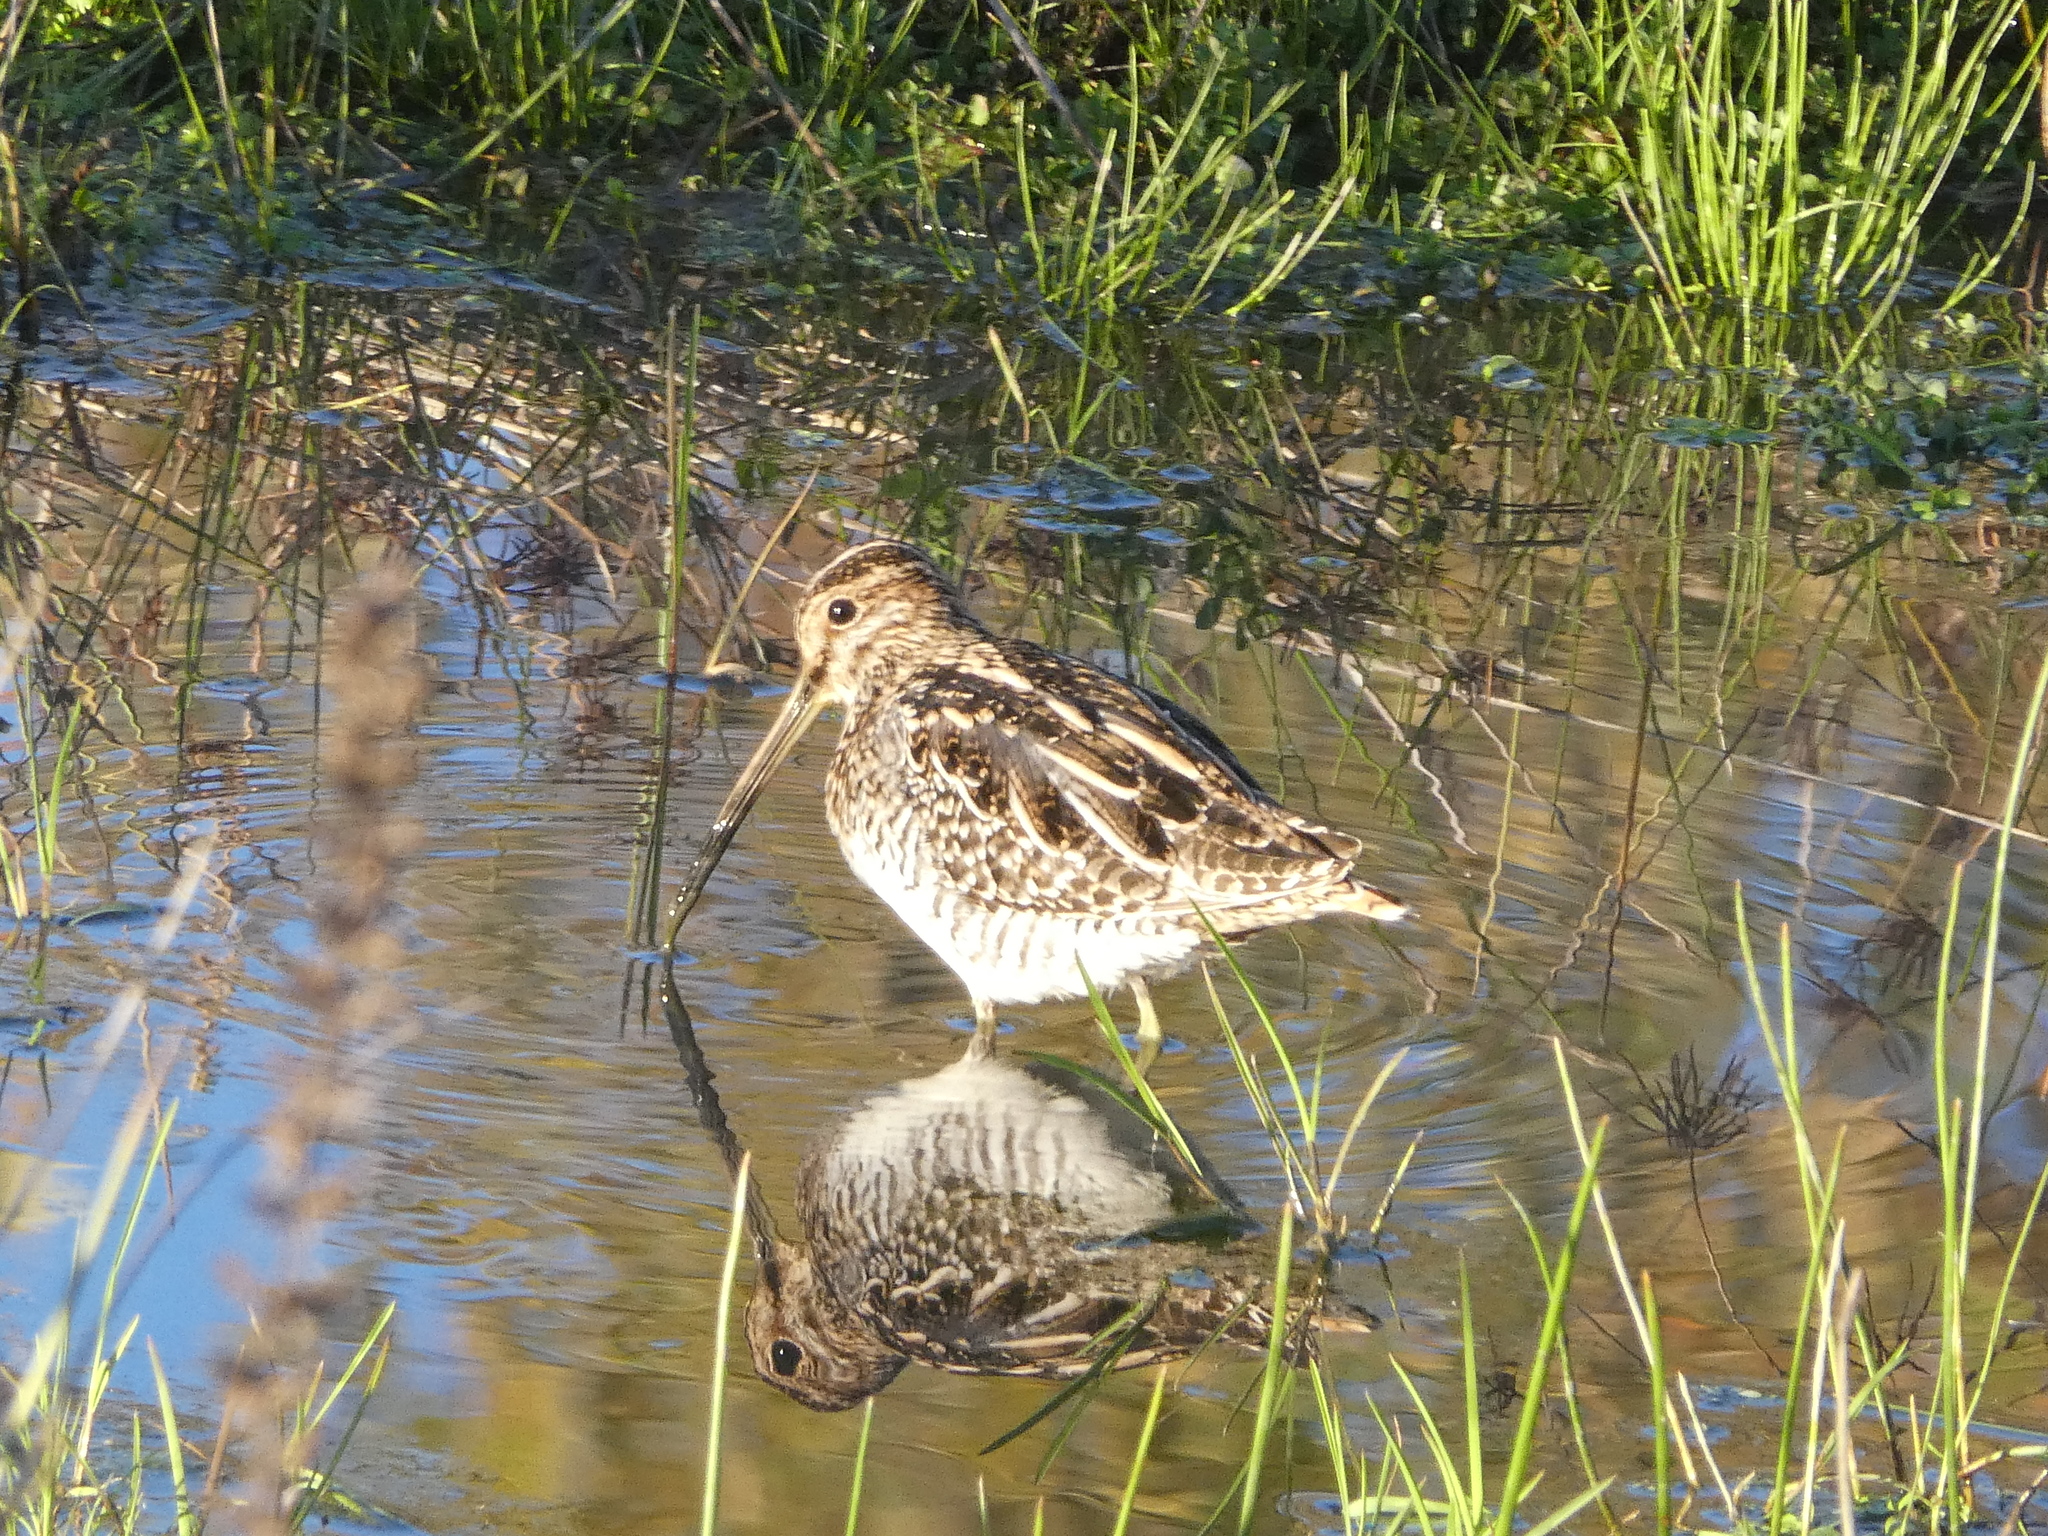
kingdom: Animalia
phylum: Chordata
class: Aves
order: Charadriiformes
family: Scolopacidae
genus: Gallinago
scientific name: Gallinago delicata
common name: Wilson's snipe
